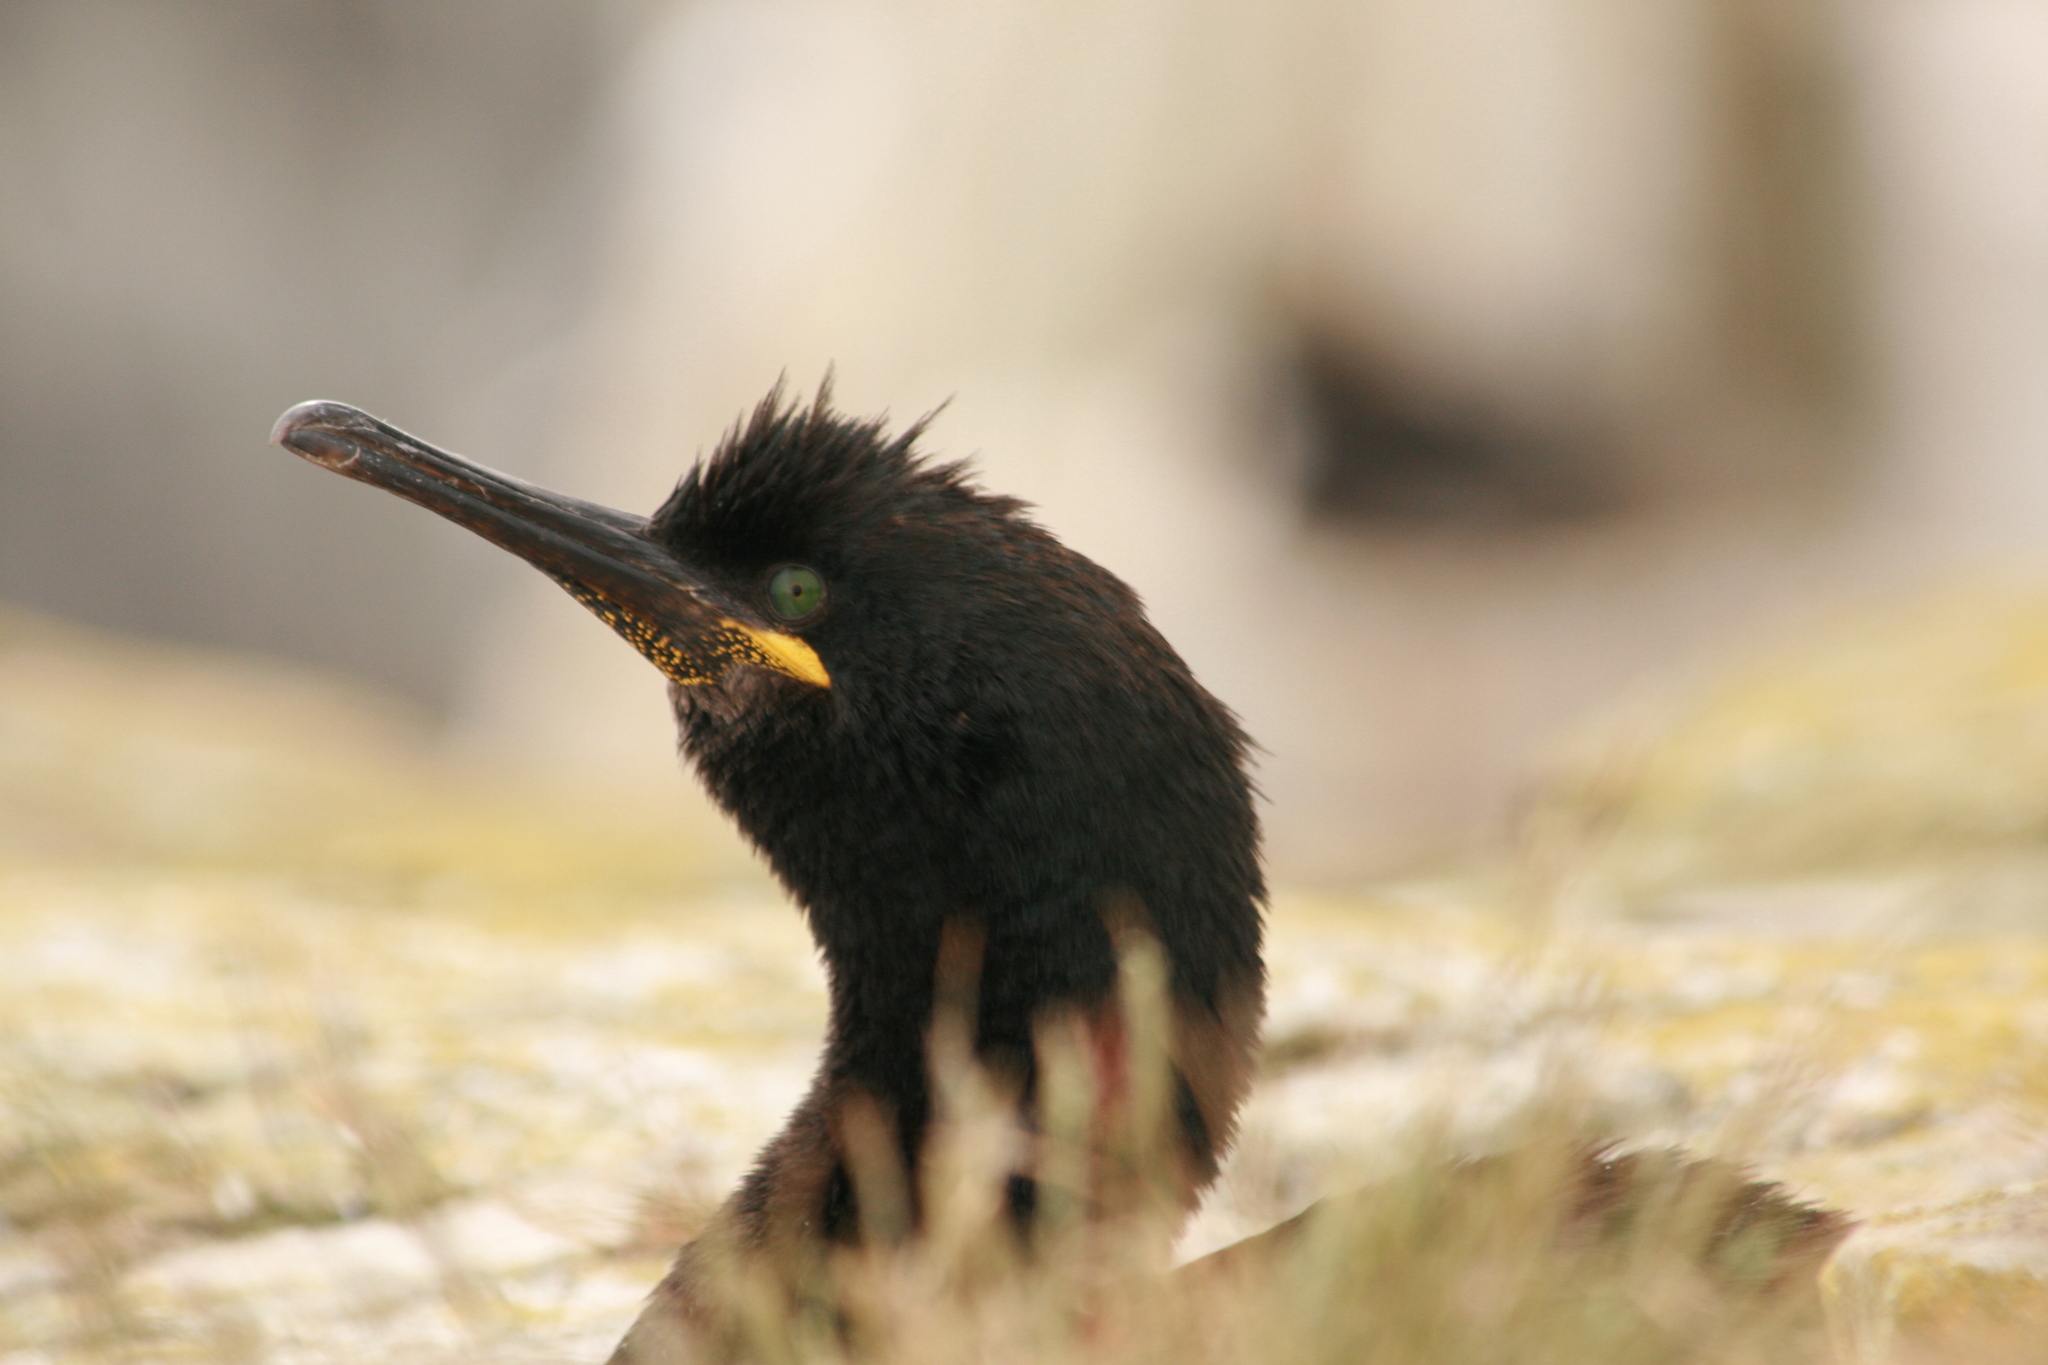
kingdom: Animalia
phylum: Chordata
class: Aves
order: Suliformes
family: Phalacrocoracidae
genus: Phalacrocorax
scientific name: Phalacrocorax aristotelis
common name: European shag
